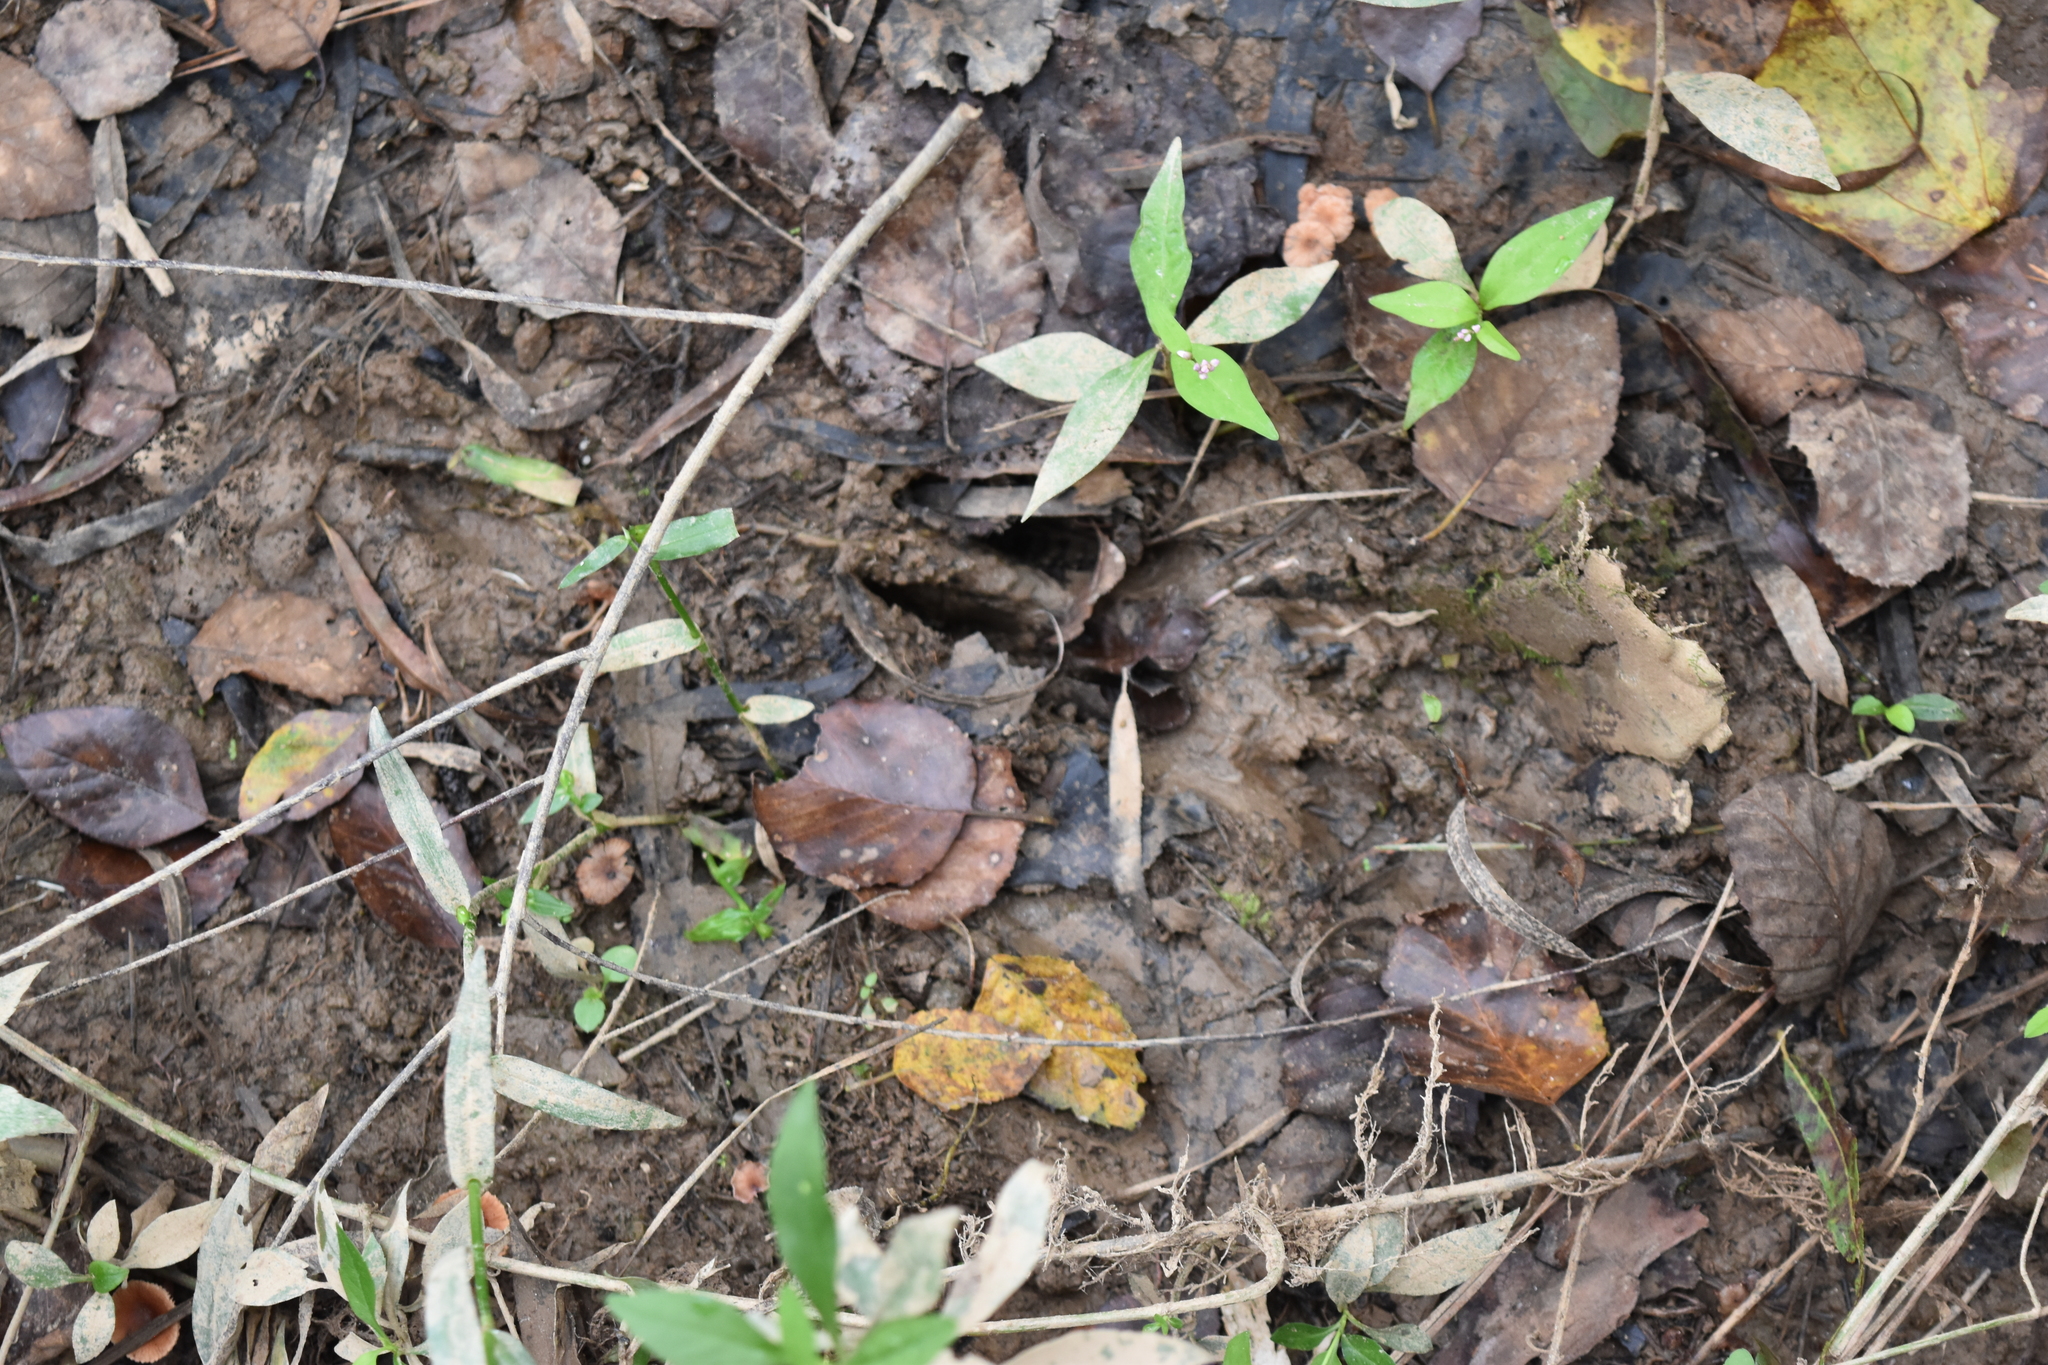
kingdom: Animalia
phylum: Chordata
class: Mammalia
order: Artiodactyla
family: Cervidae
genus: Odocoileus
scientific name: Odocoileus virginianus
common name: White-tailed deer
